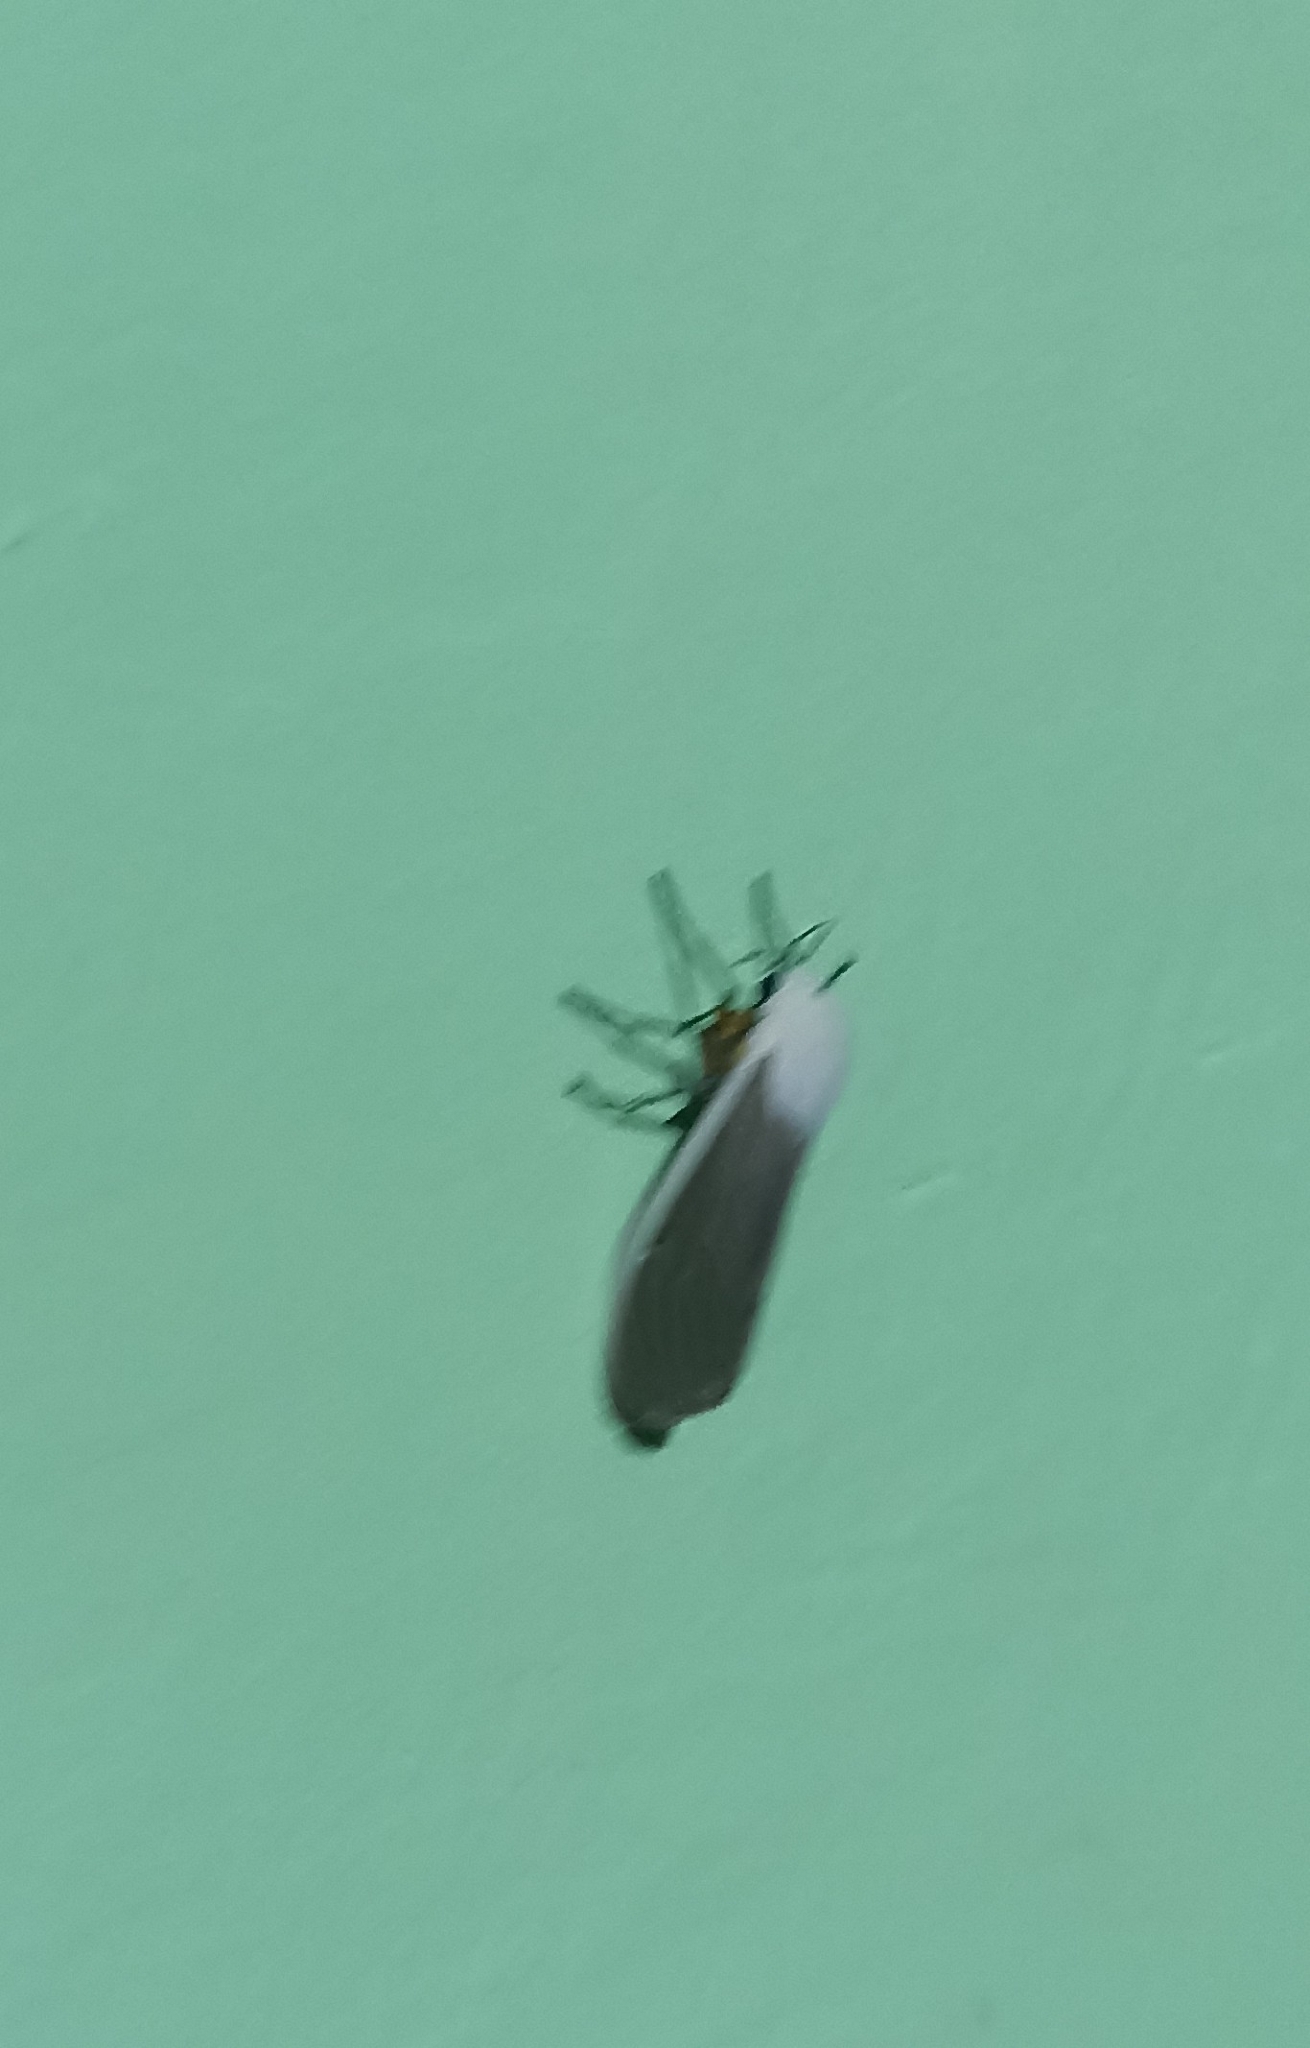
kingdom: Animalia
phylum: Arthropoda
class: Insecta
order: Lepidoptera
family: Erebidae
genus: Creatonotos
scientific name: Creatonotos transiens
